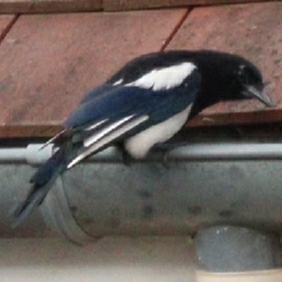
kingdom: Animalia
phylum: Chordata
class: Aves
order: Passeriformes
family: Corvidae
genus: Pica
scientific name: Pica pica
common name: Eurasian magpie
